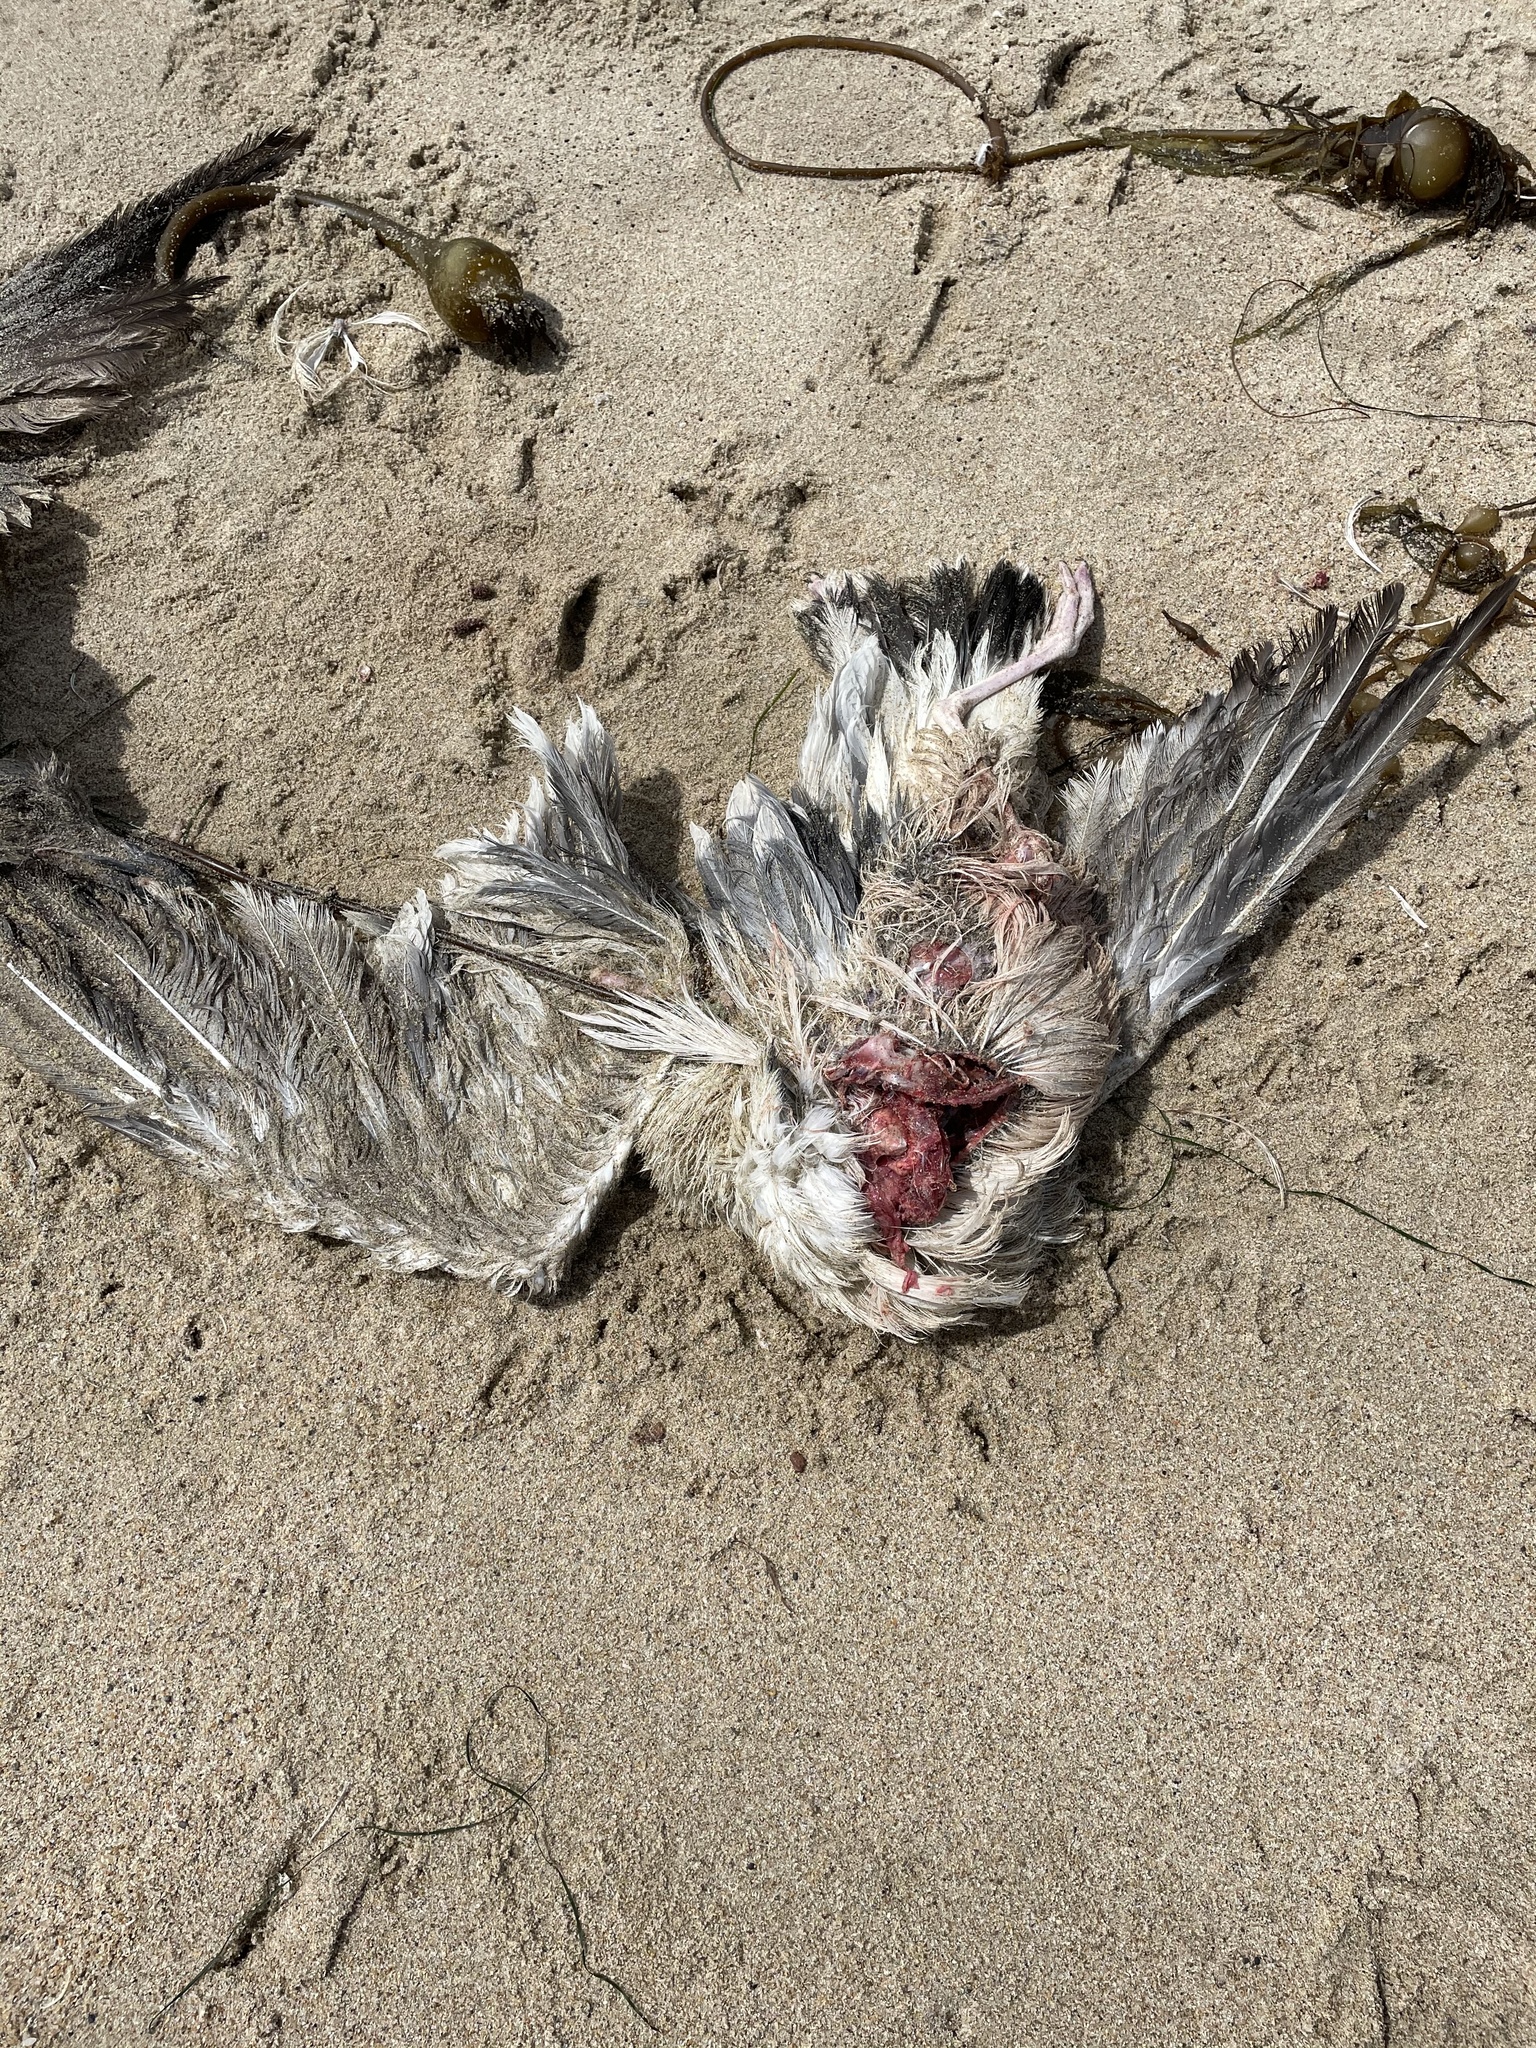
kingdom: Animalia
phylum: Chordata
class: Aves
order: Accipitriformes
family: Cathartidae
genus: Cathartes
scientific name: Cathartes aura
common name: Turkey vulture
